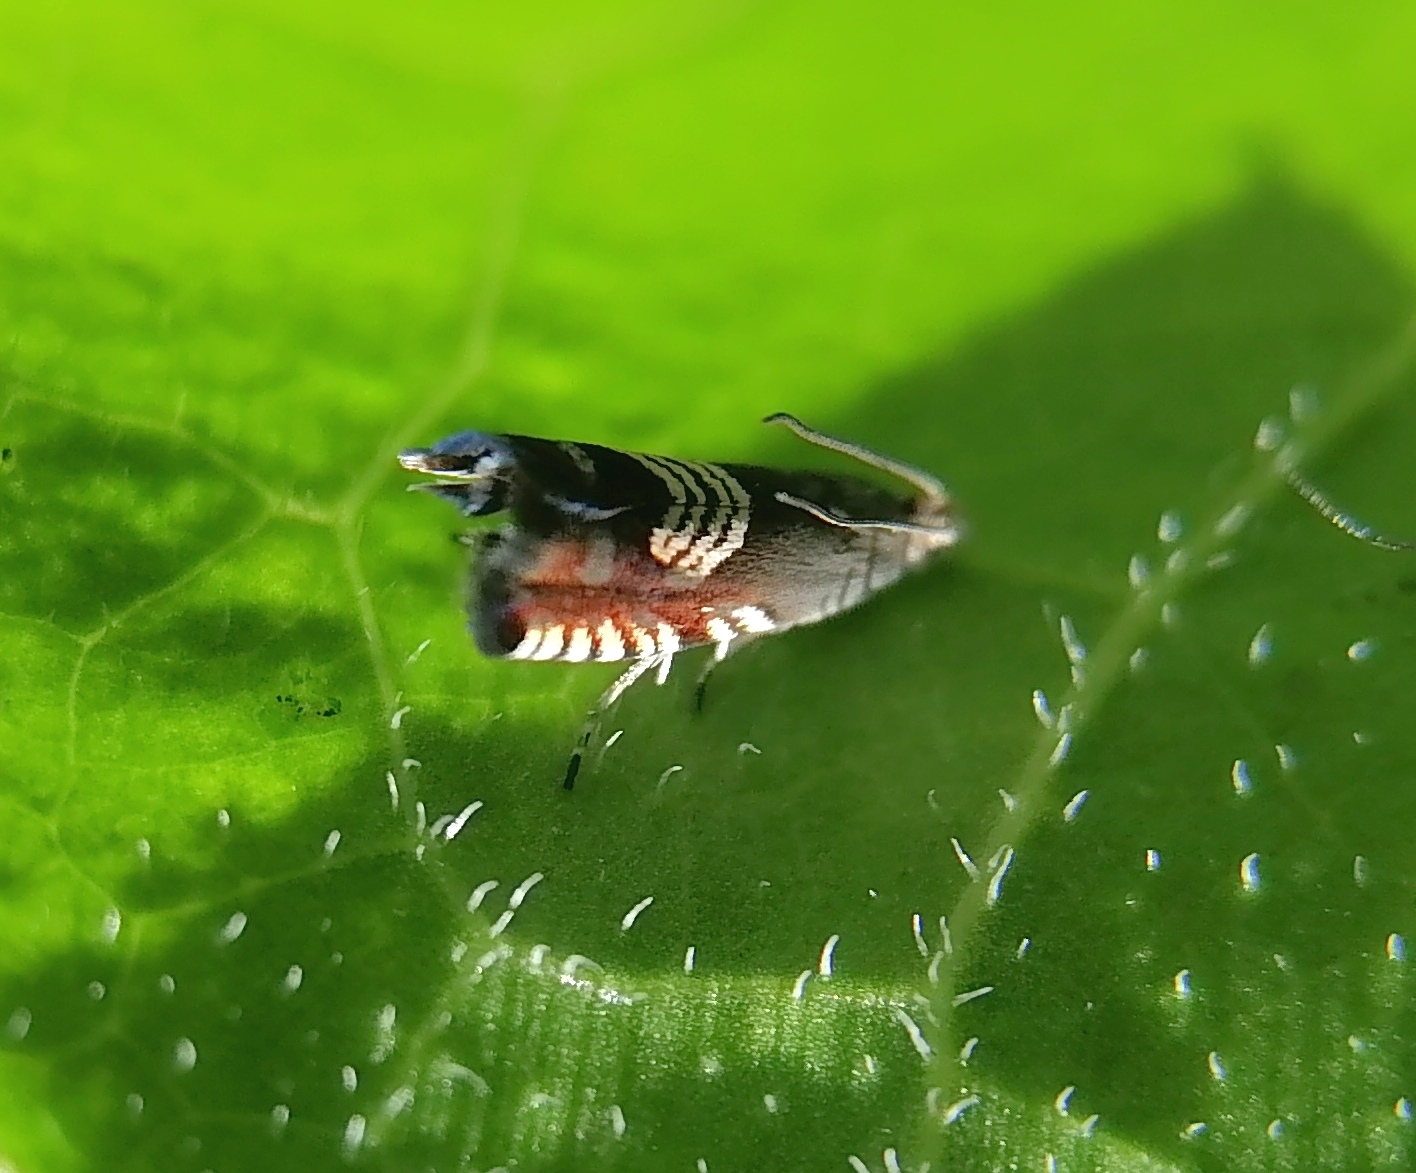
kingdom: Animalia
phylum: Arthropoda
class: Insecta
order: Lepidoptera
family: Tortricidae
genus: Grapholita
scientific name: Grapholita compositella
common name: Triple-stripe piercer
